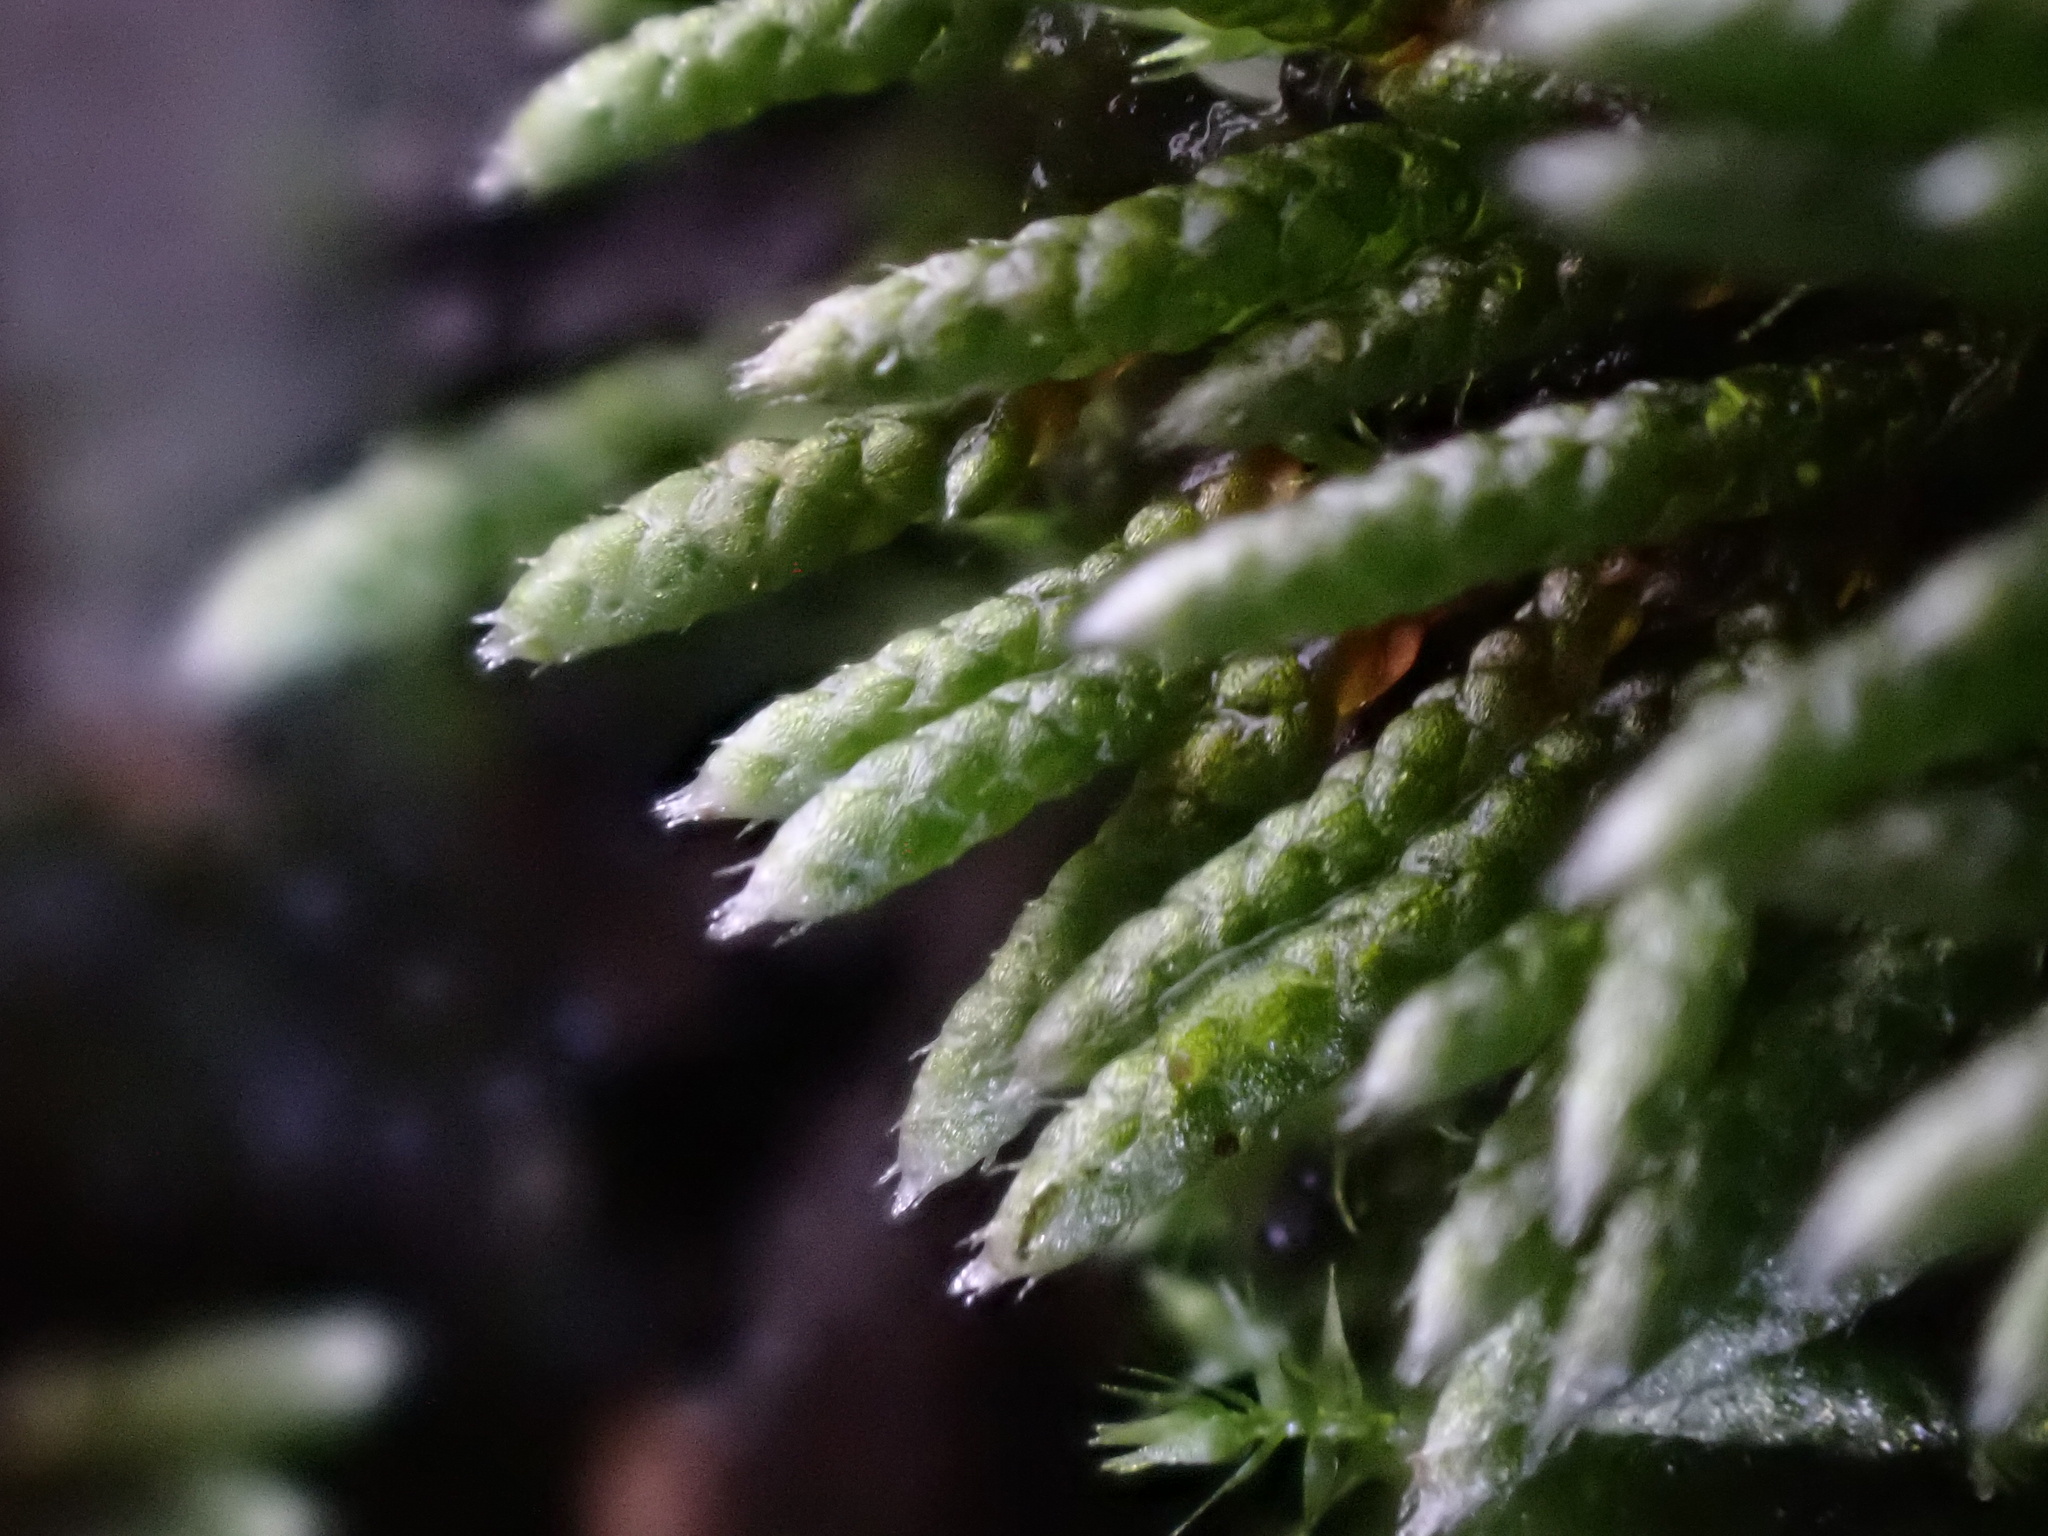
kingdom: Plantae
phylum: Bryophyta
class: Bryopsida
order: Bryales
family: Bryaceae
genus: Bryum
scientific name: Bryum argenteum
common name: Silver-moss
